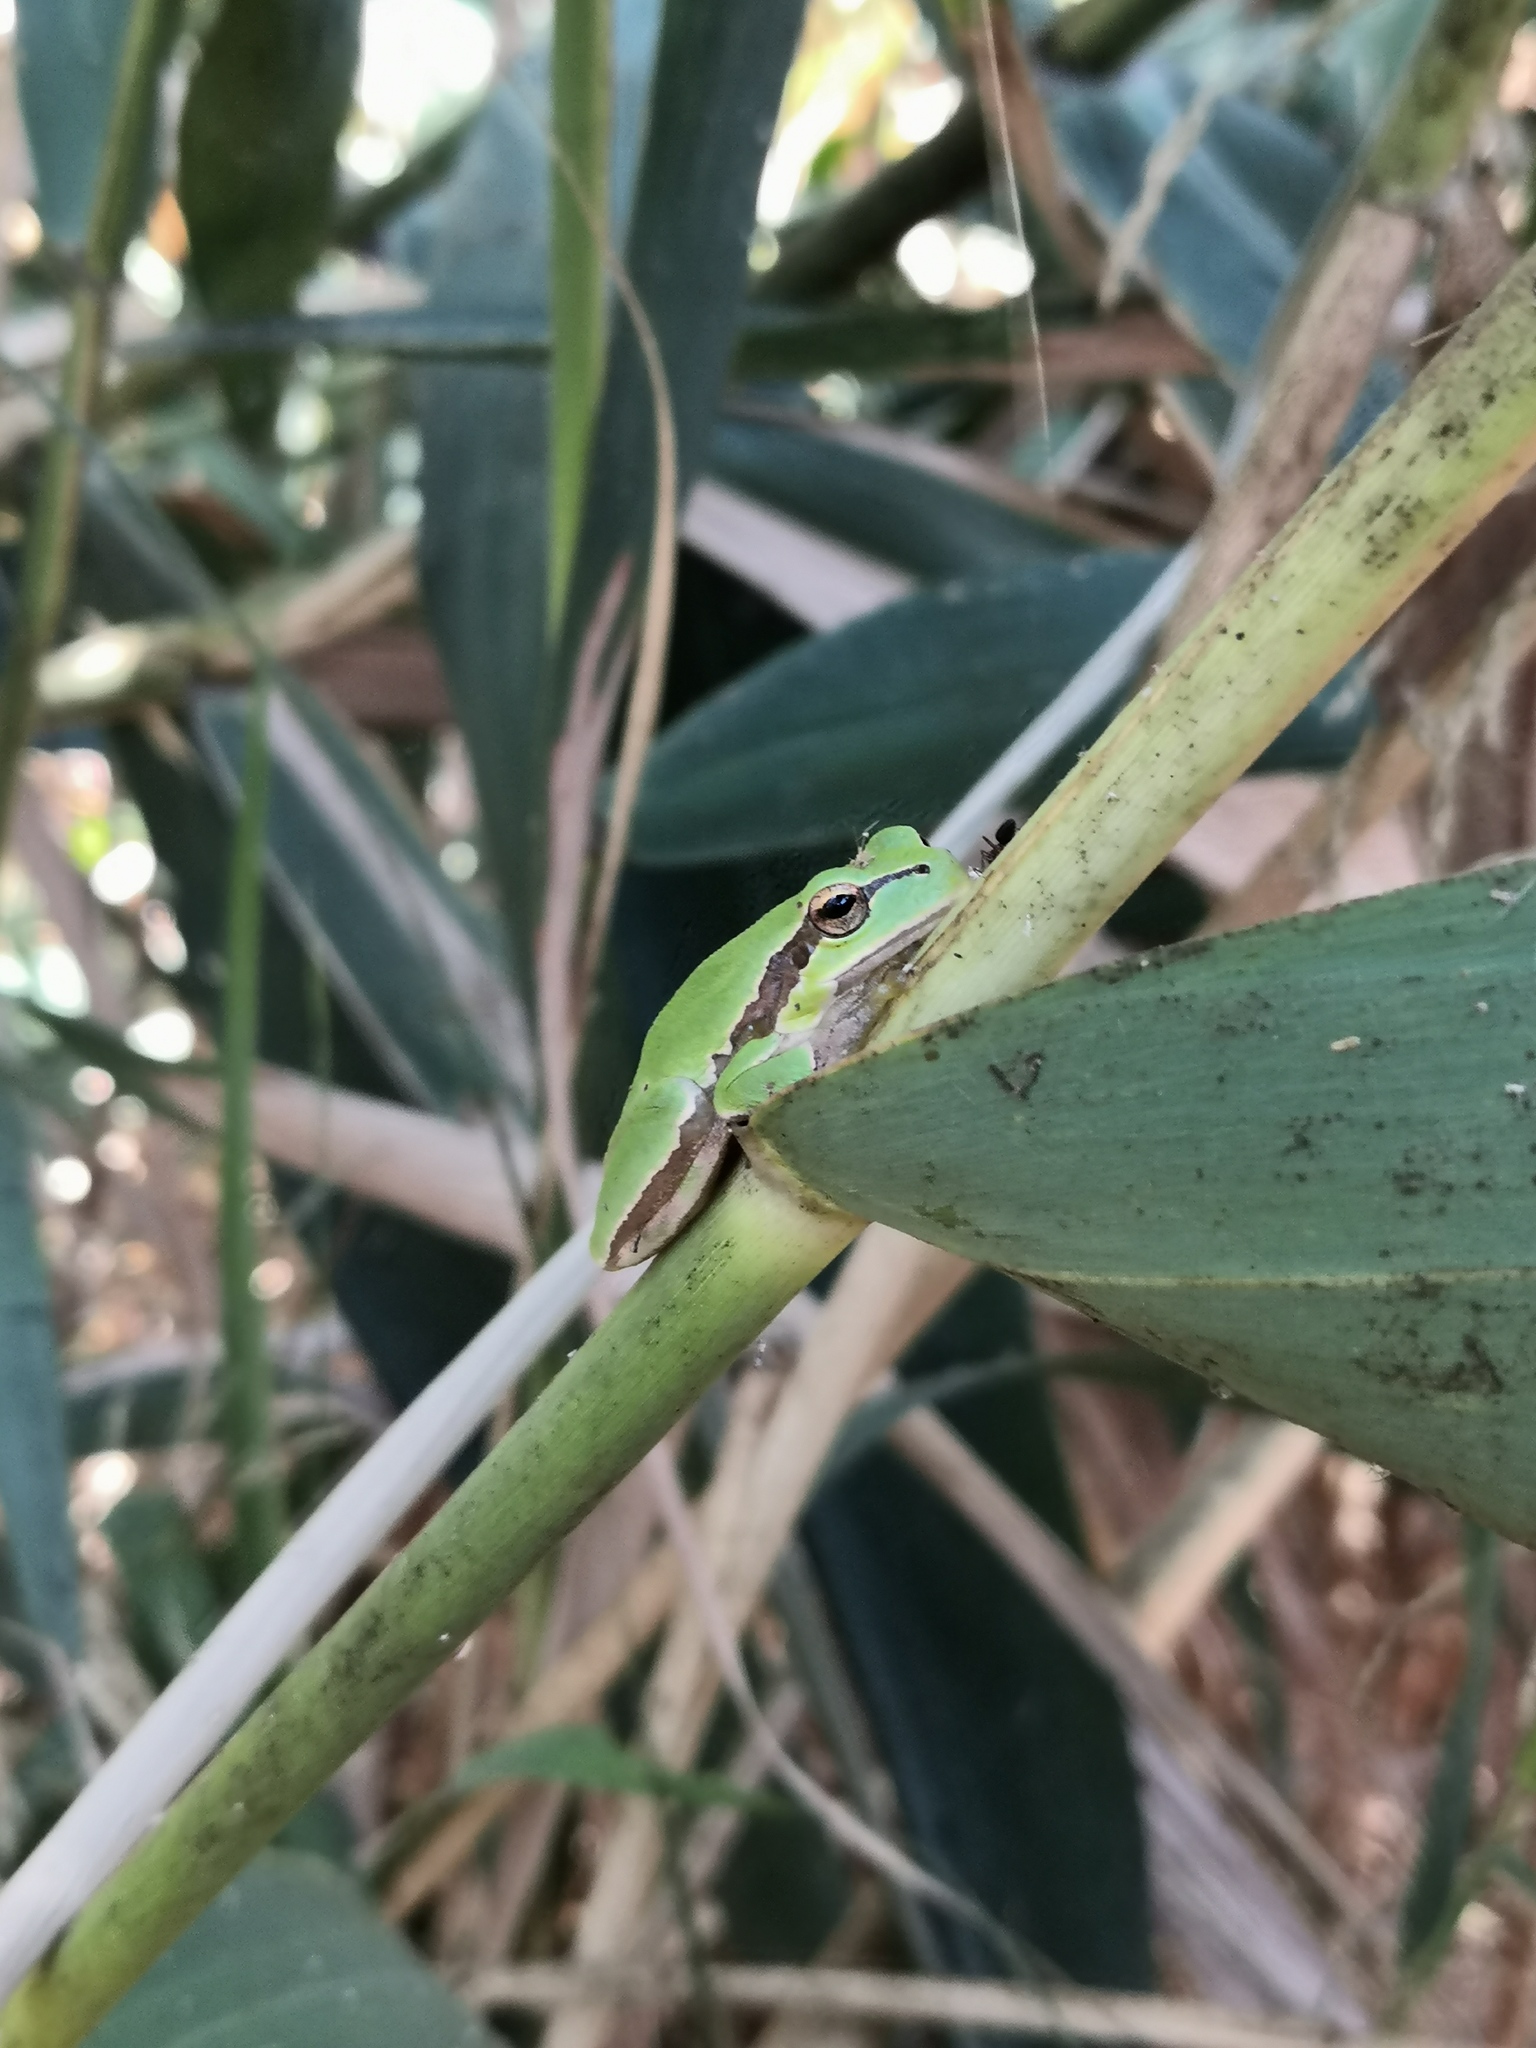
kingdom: Animalia
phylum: Chordata
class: Amphibia
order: Anura
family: Hylidae
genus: Hyla
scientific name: Hyla orientalis
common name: Caucasian treefrog
